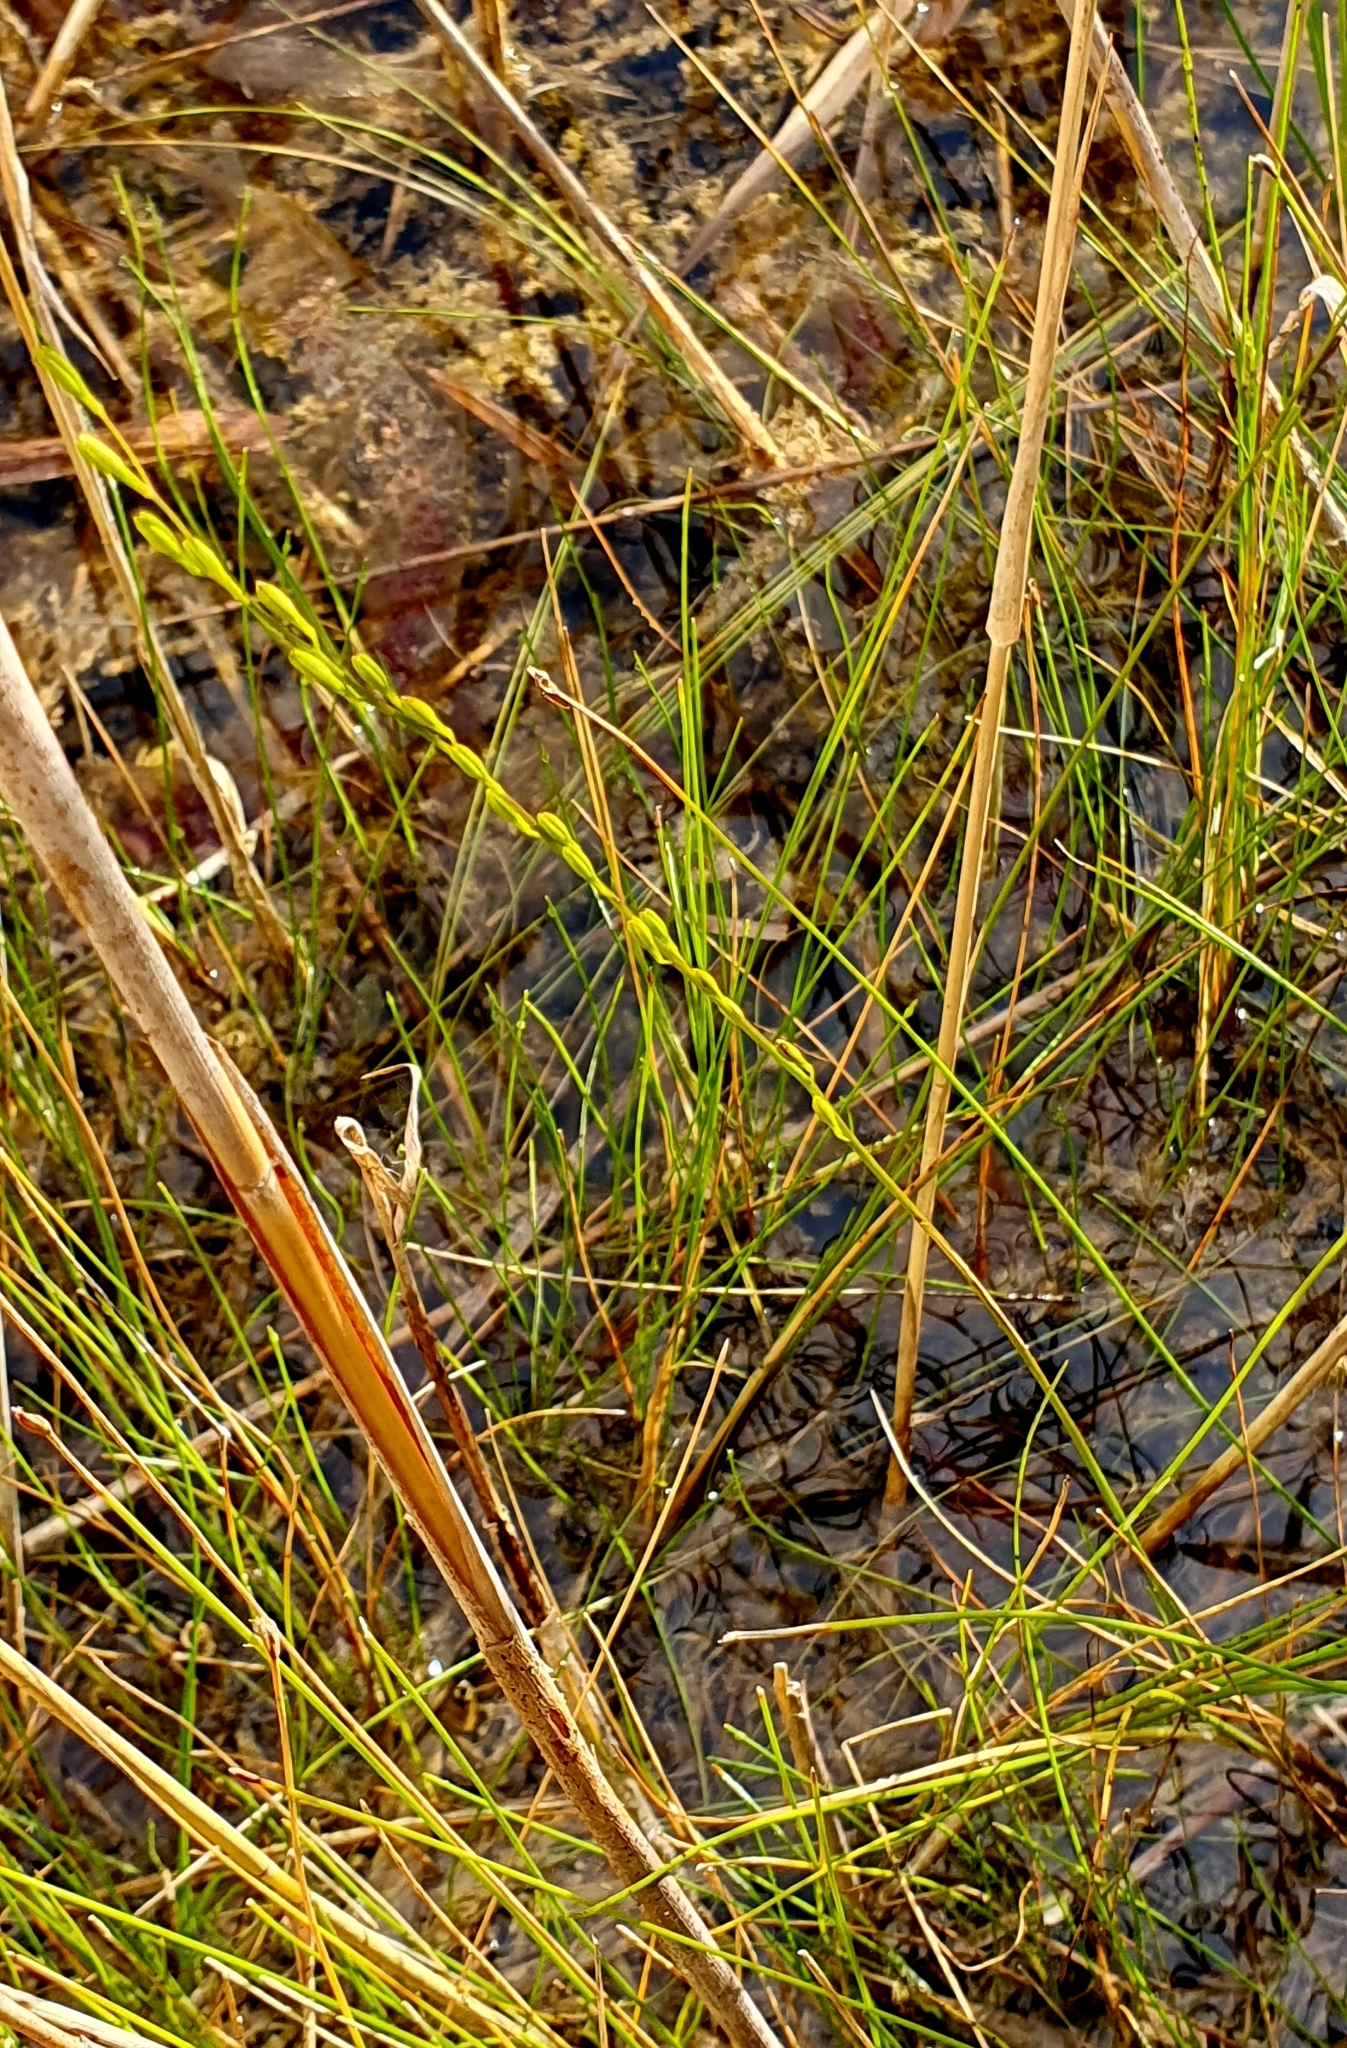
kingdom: Plantae
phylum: Tracheophyta
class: Liliopsida
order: Alismatales
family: Juncaginaceae
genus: Triglochin
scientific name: Triglochin palustris
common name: Marsh arrowgrass
